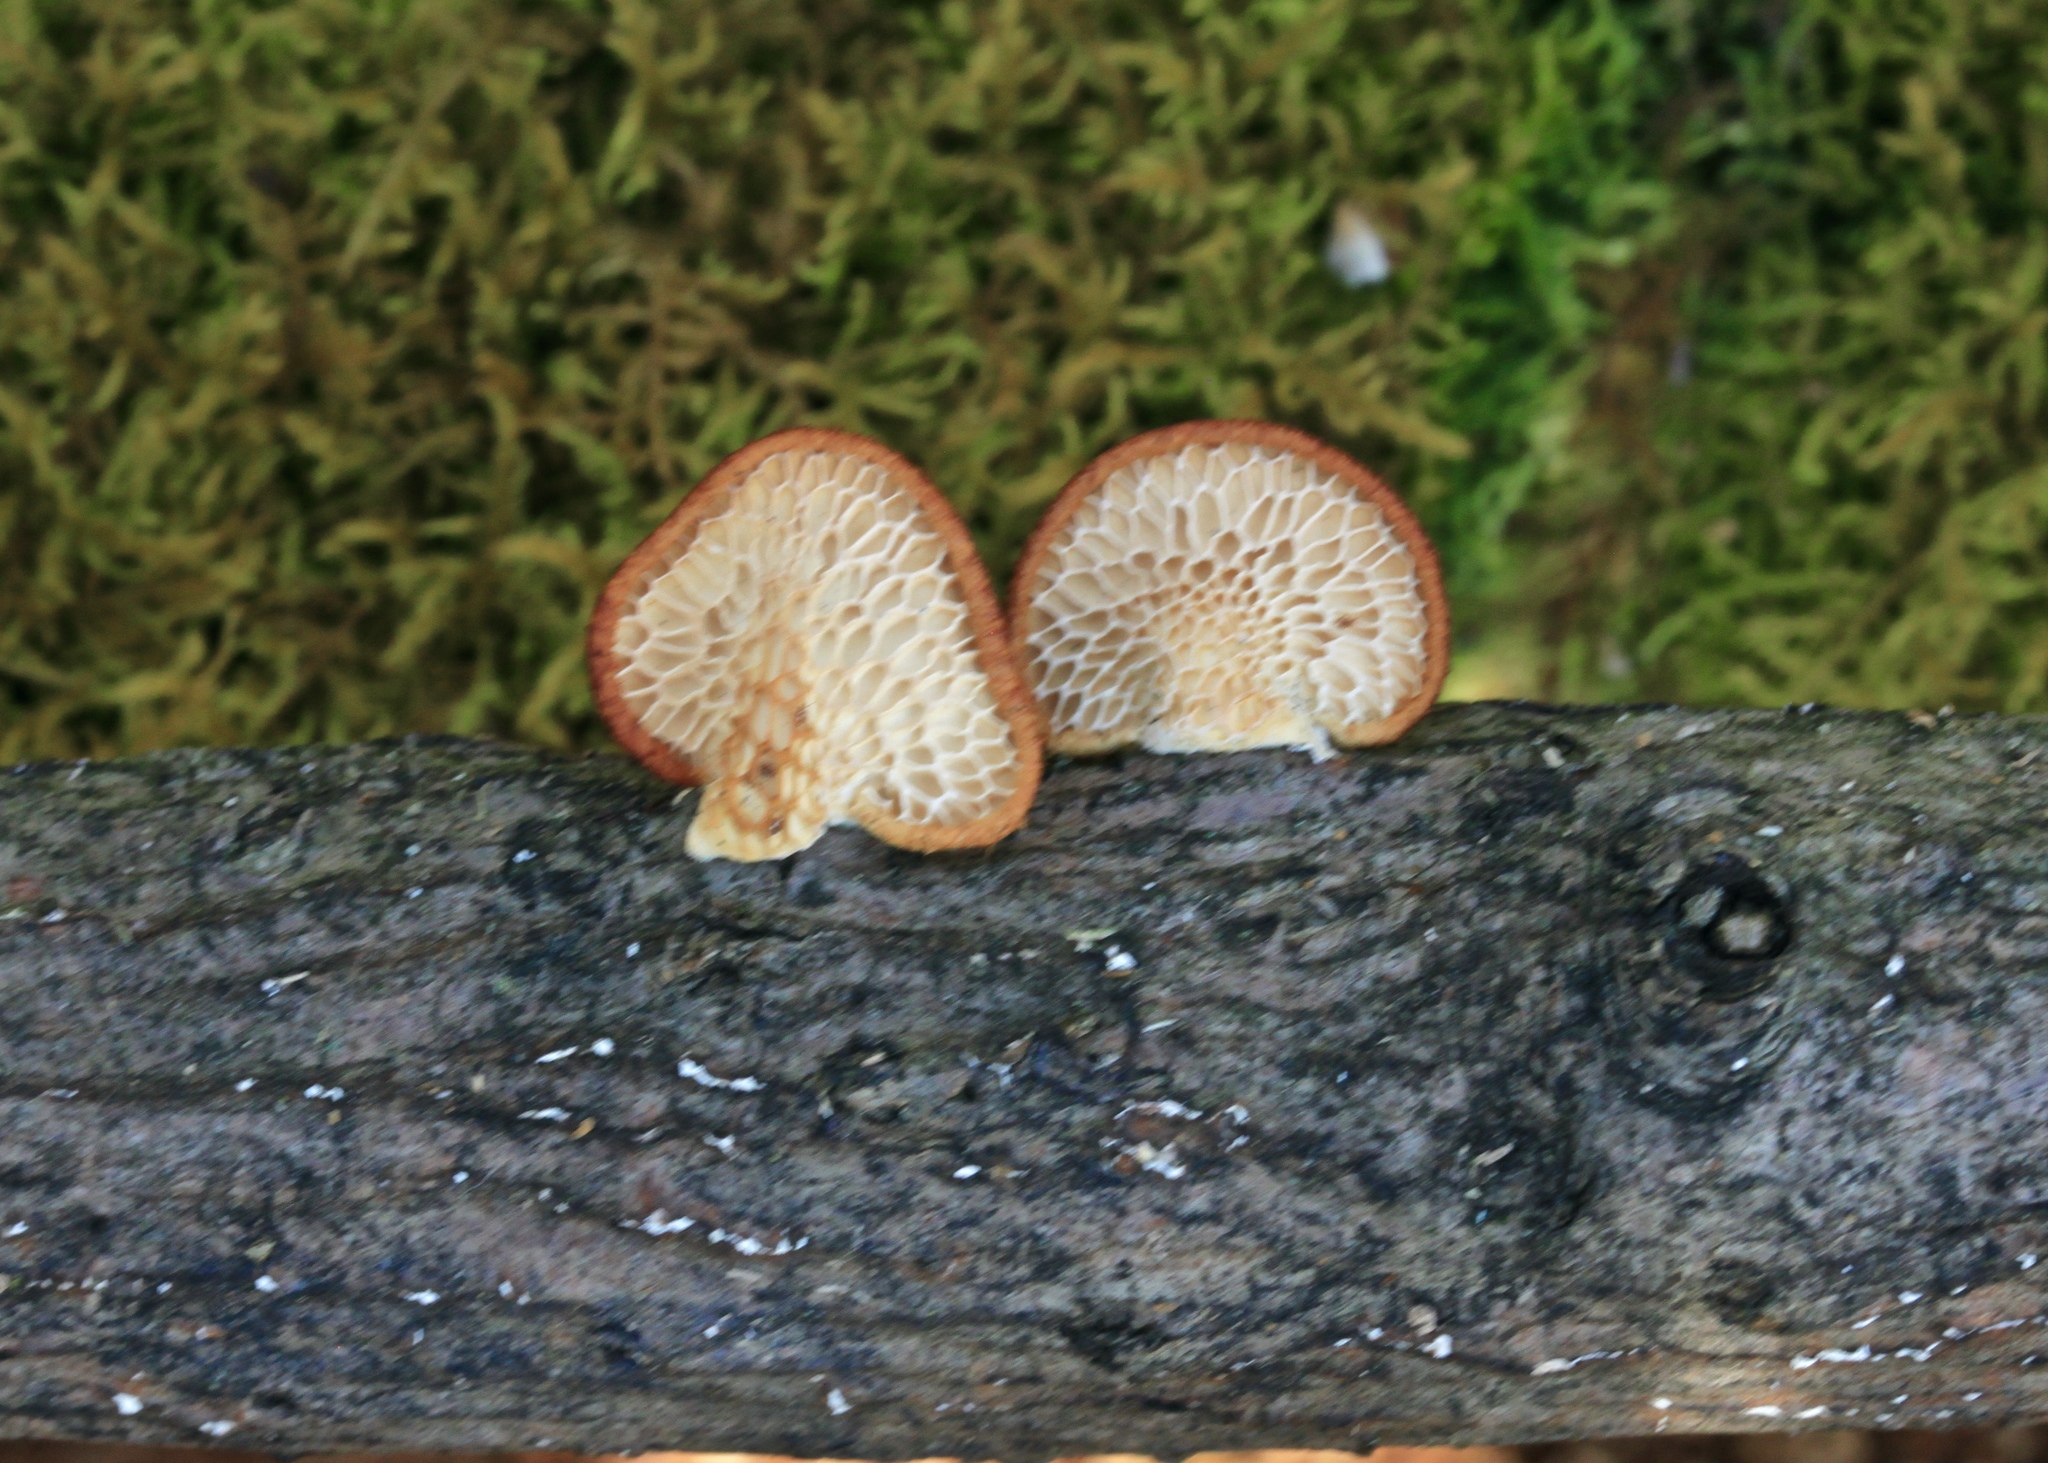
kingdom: Fungi
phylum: Basidiomycota
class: Agaricomycetes
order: Polyporales
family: Polyporaceae
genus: Neofavolus
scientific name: Neofavolus alveolaris
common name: Hexagonal-pored polypore
